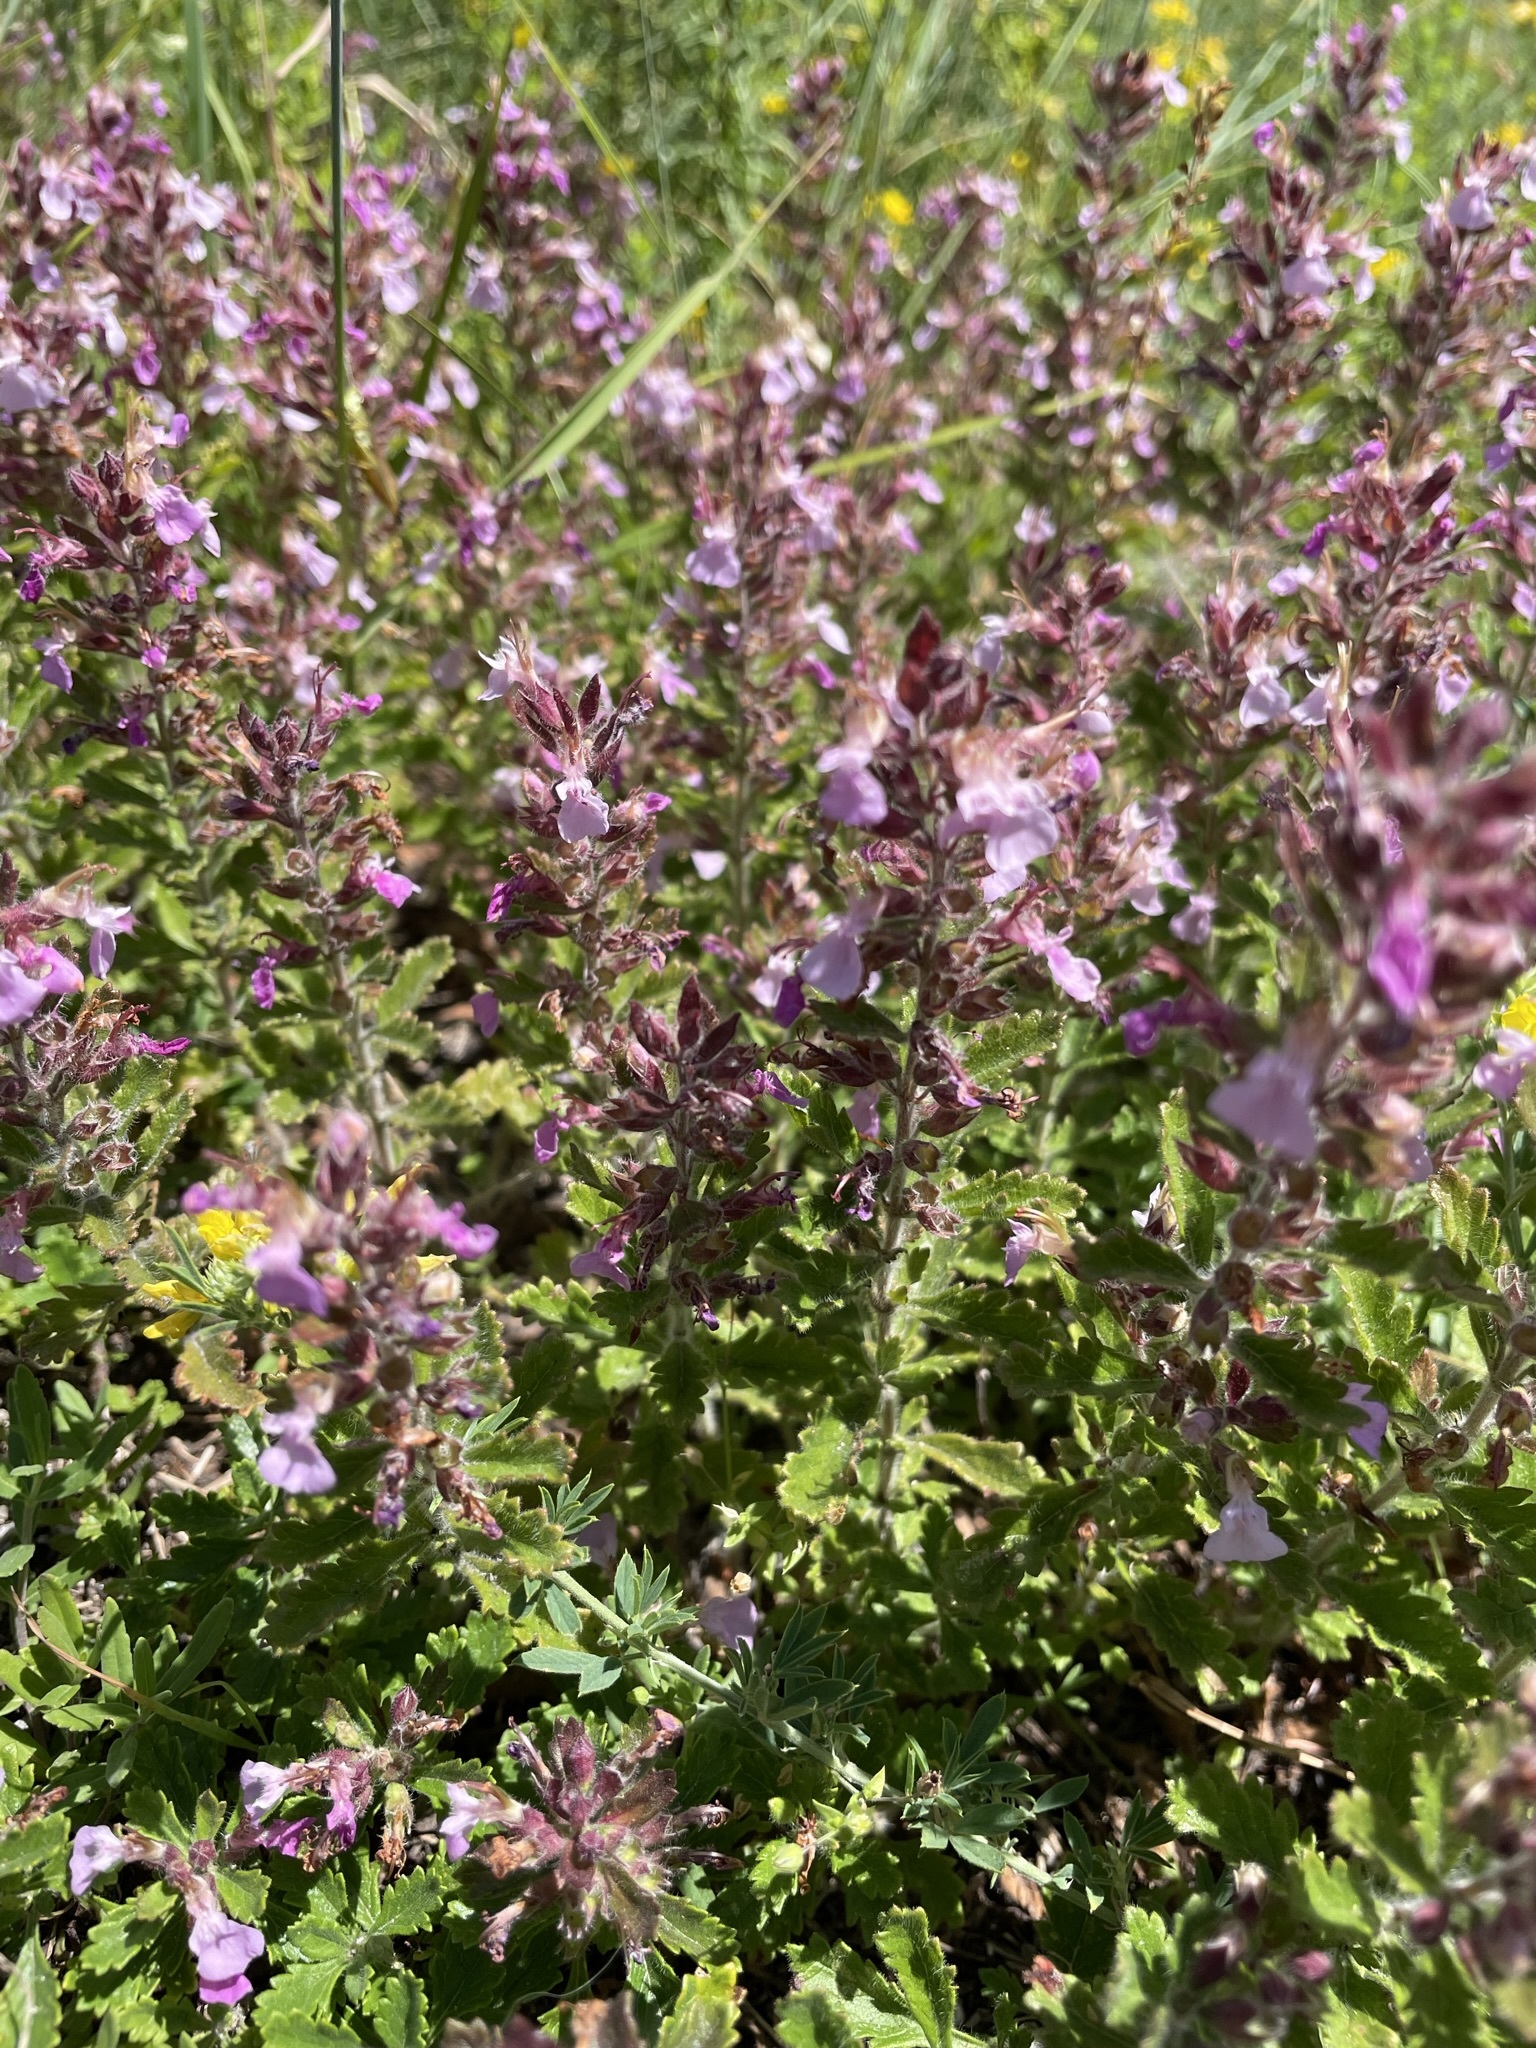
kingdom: Plantae
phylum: Tracheophyta
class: Magnoliopsida
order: Lamiales
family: Lamiaceae
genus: Teucrium
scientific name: Teucrium chamaedrys
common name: Wall germander
